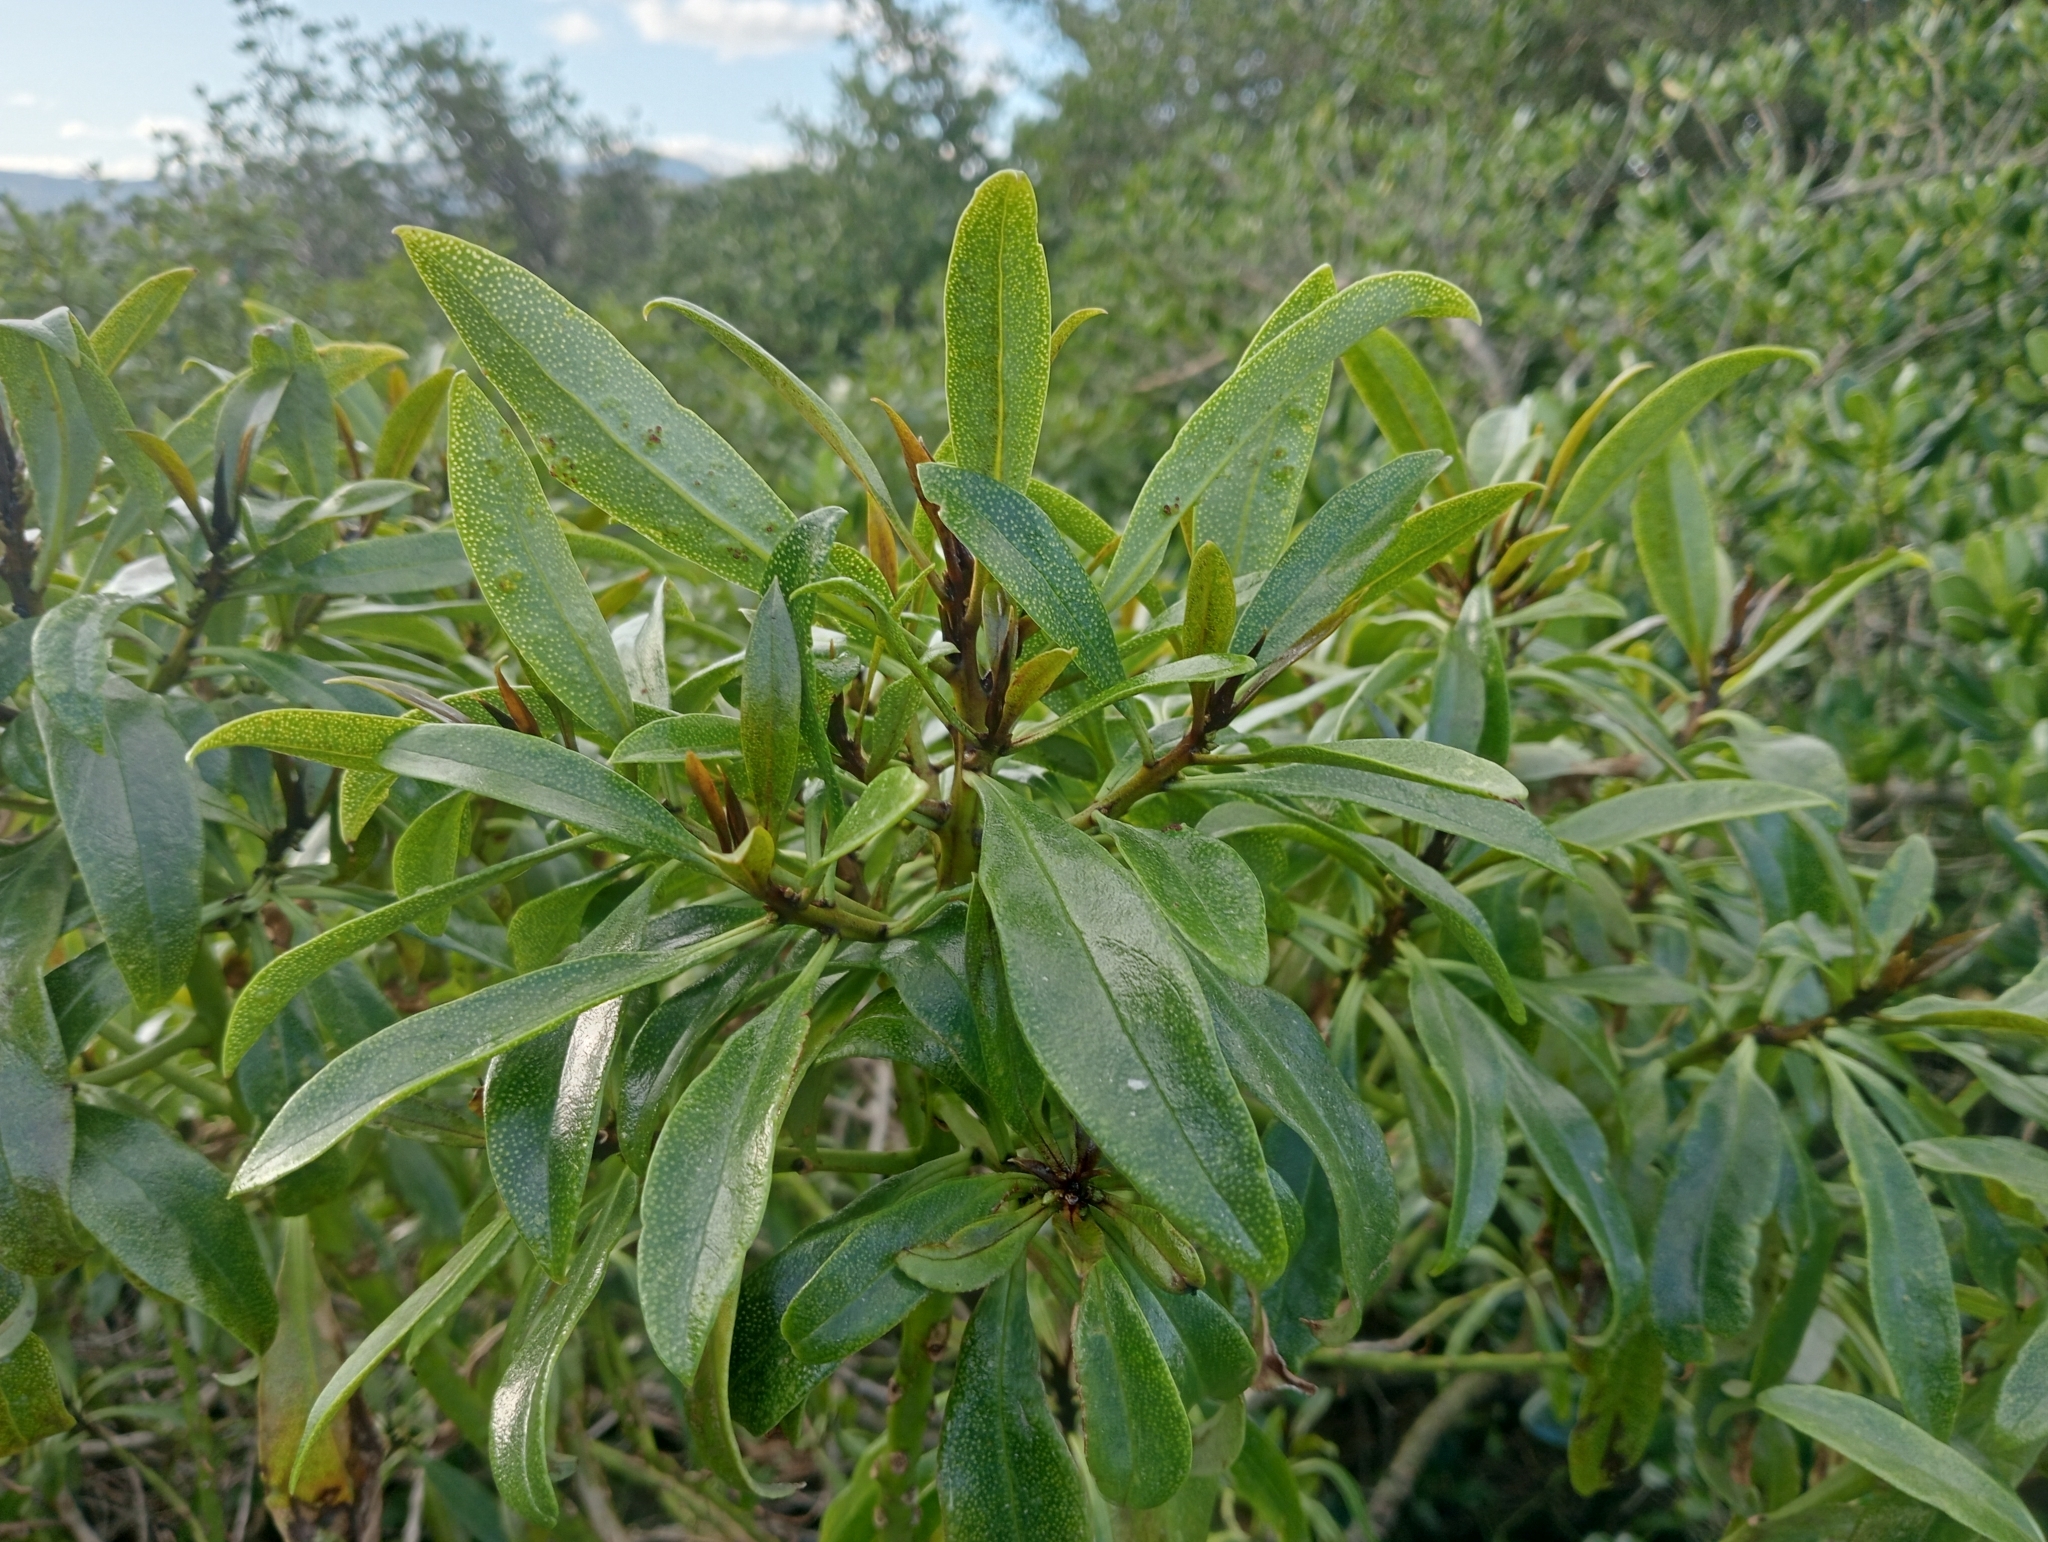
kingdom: Plantae
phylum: Tracheophyta
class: Magnoliopsida
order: Lamiales
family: Scrophulariaceae
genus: Myoporum
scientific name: Myoporum laetum
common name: Ngaio tree
